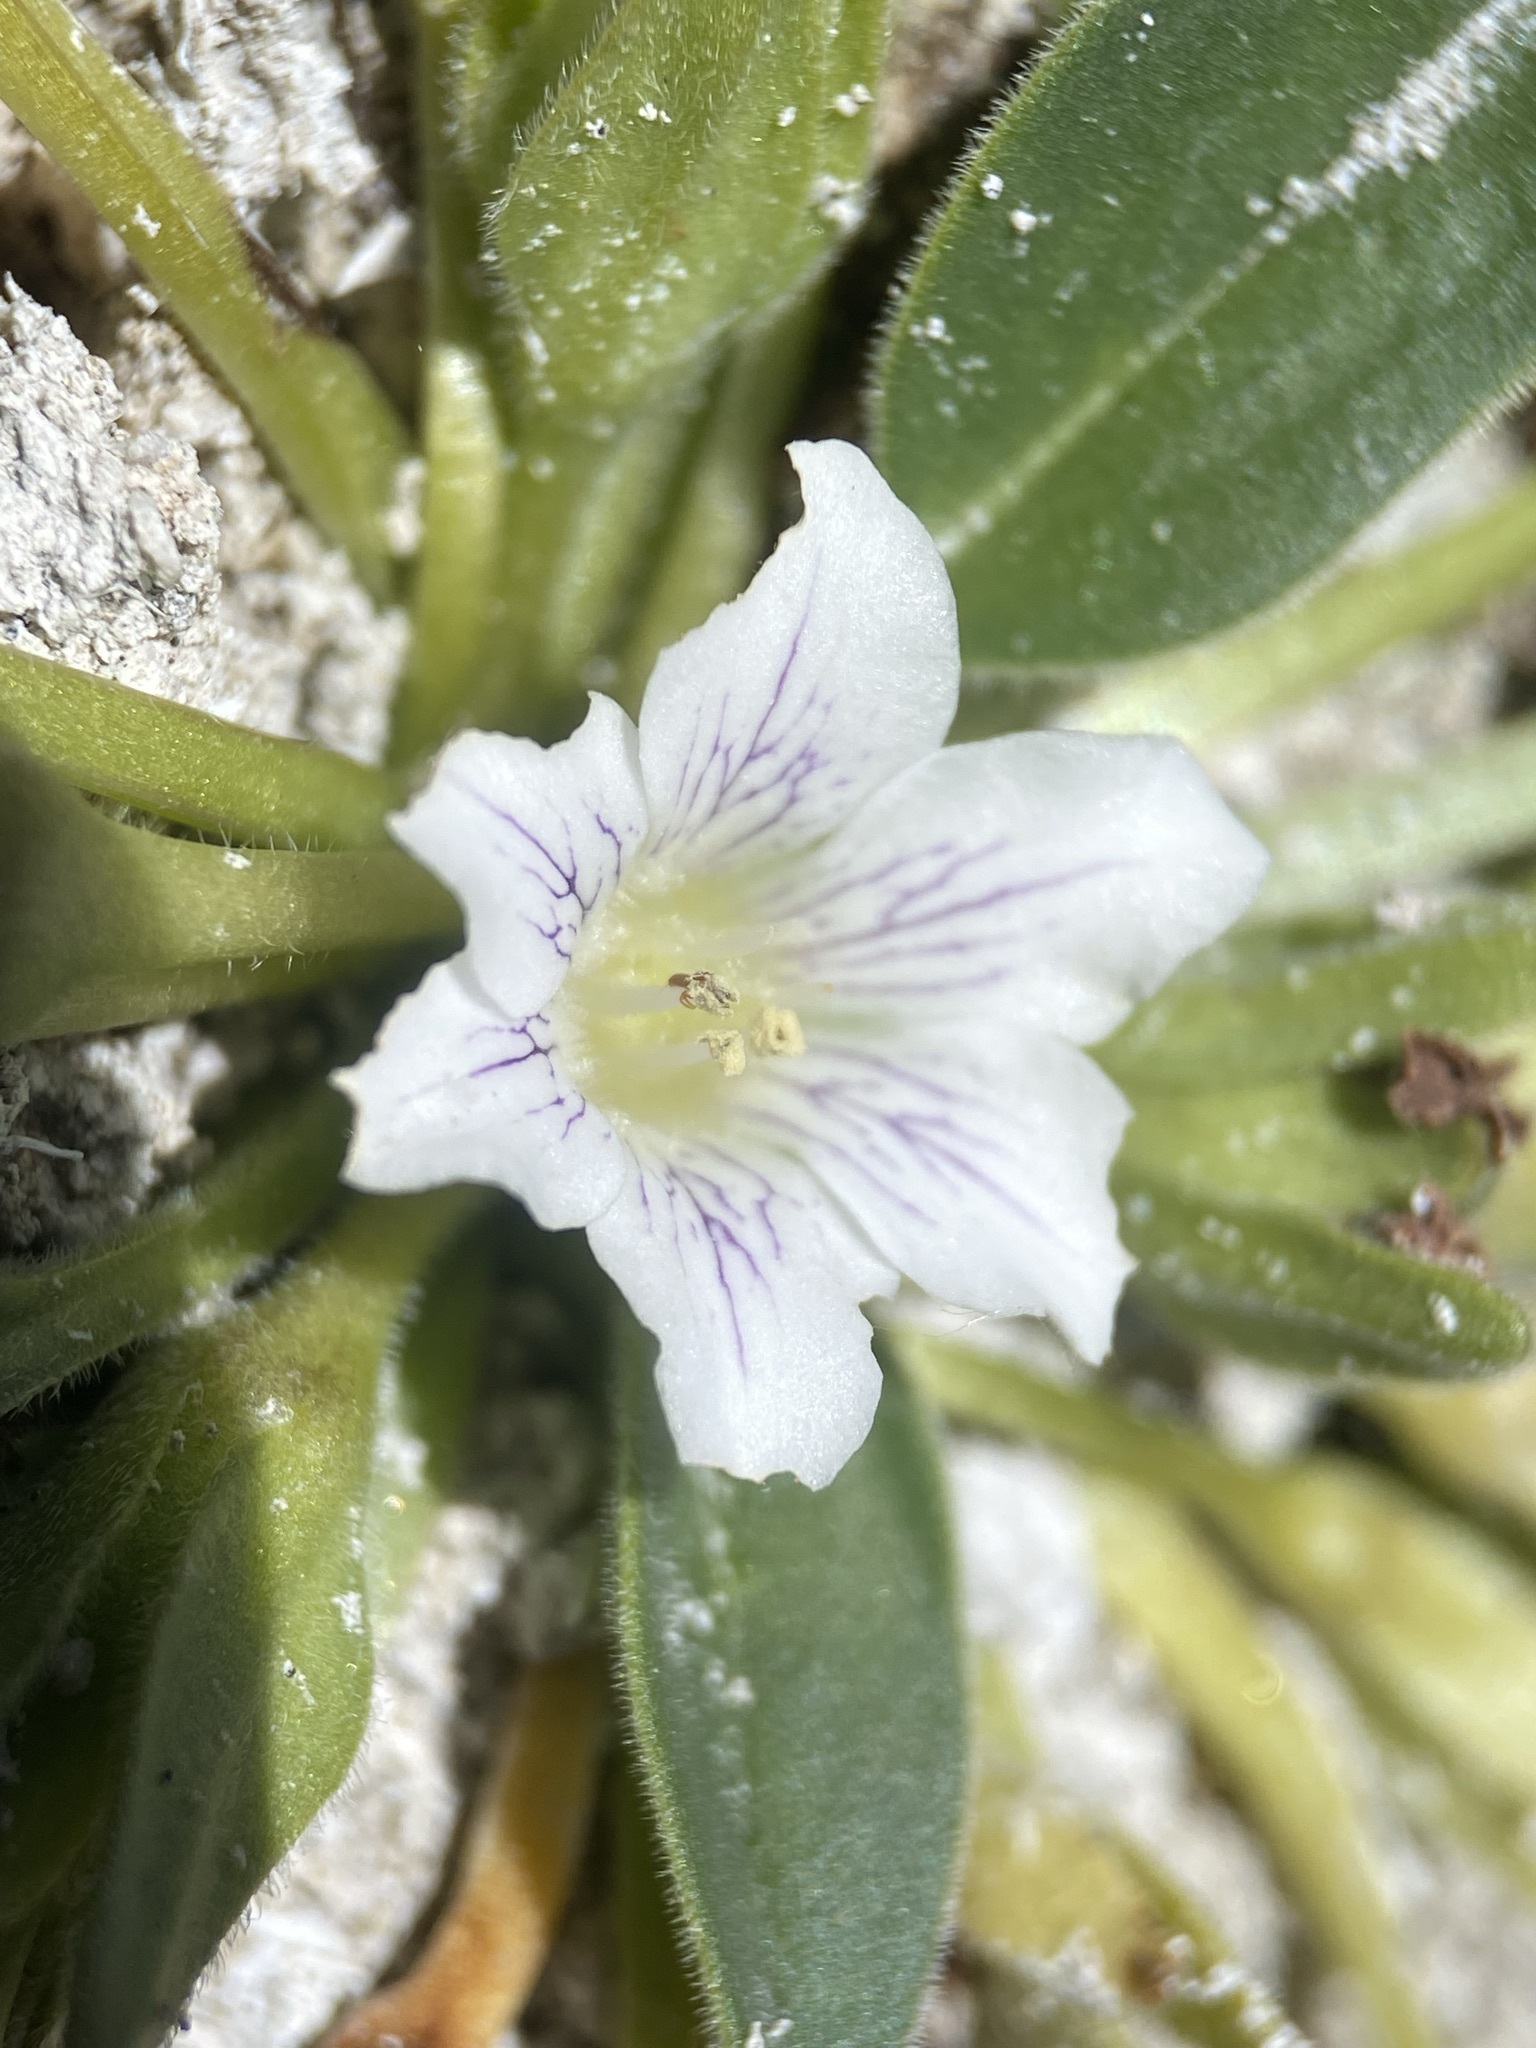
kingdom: Plantae
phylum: Tracheophyta
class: Magnoliopsida
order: Boraginales
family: Hydrophyllaceae
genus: Hesperochiron
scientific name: Hesperochiron californicus
